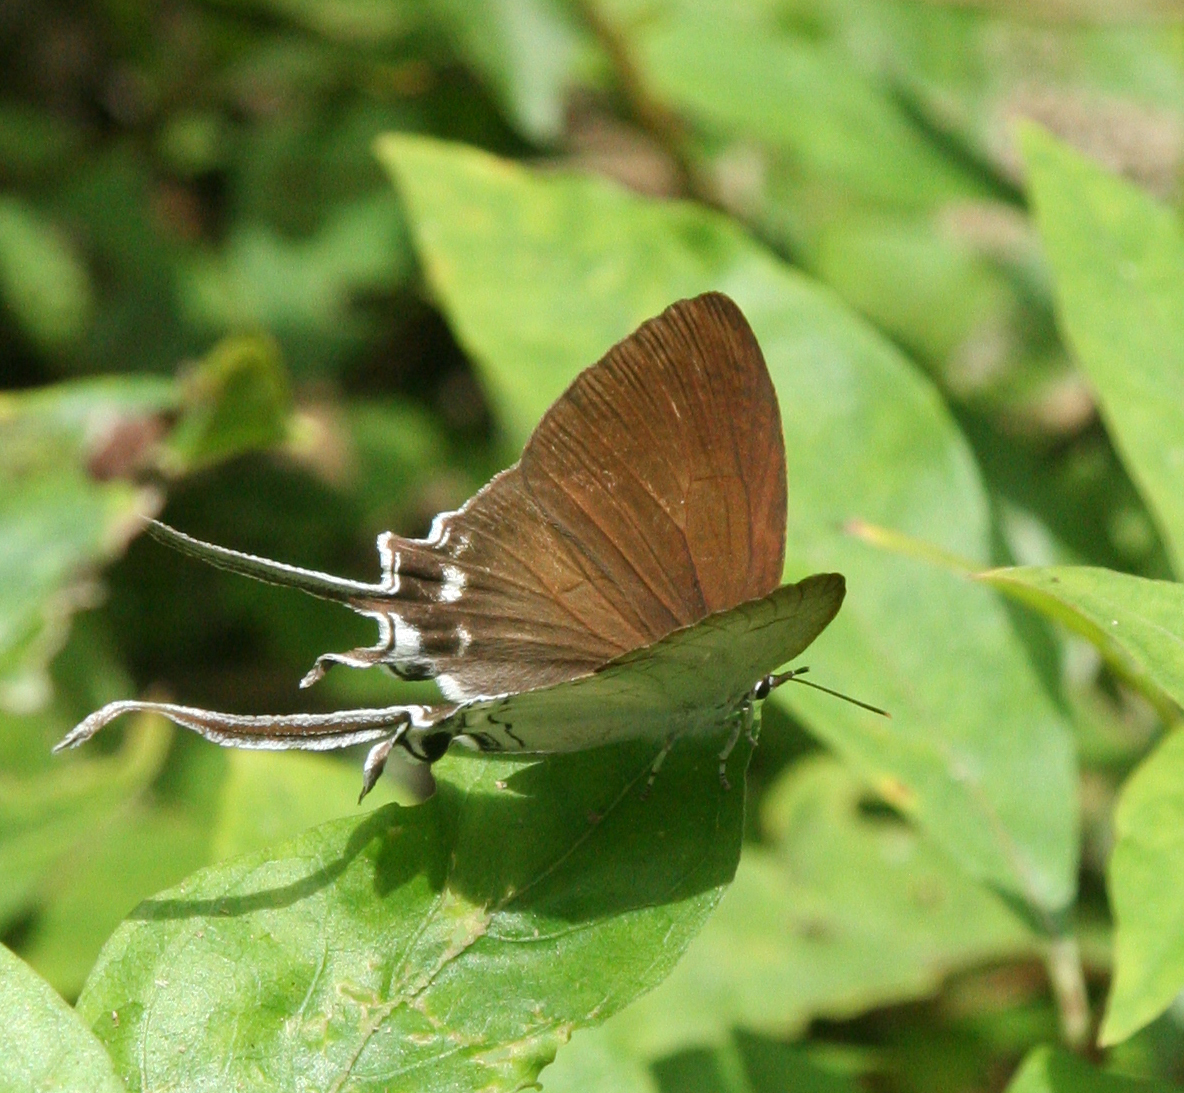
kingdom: Animalia
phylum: Arthropoda
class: Insecta
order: Lepidoptera
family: Lycaenidae
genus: Cheritra
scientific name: Cheritra freja
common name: Common imperial
